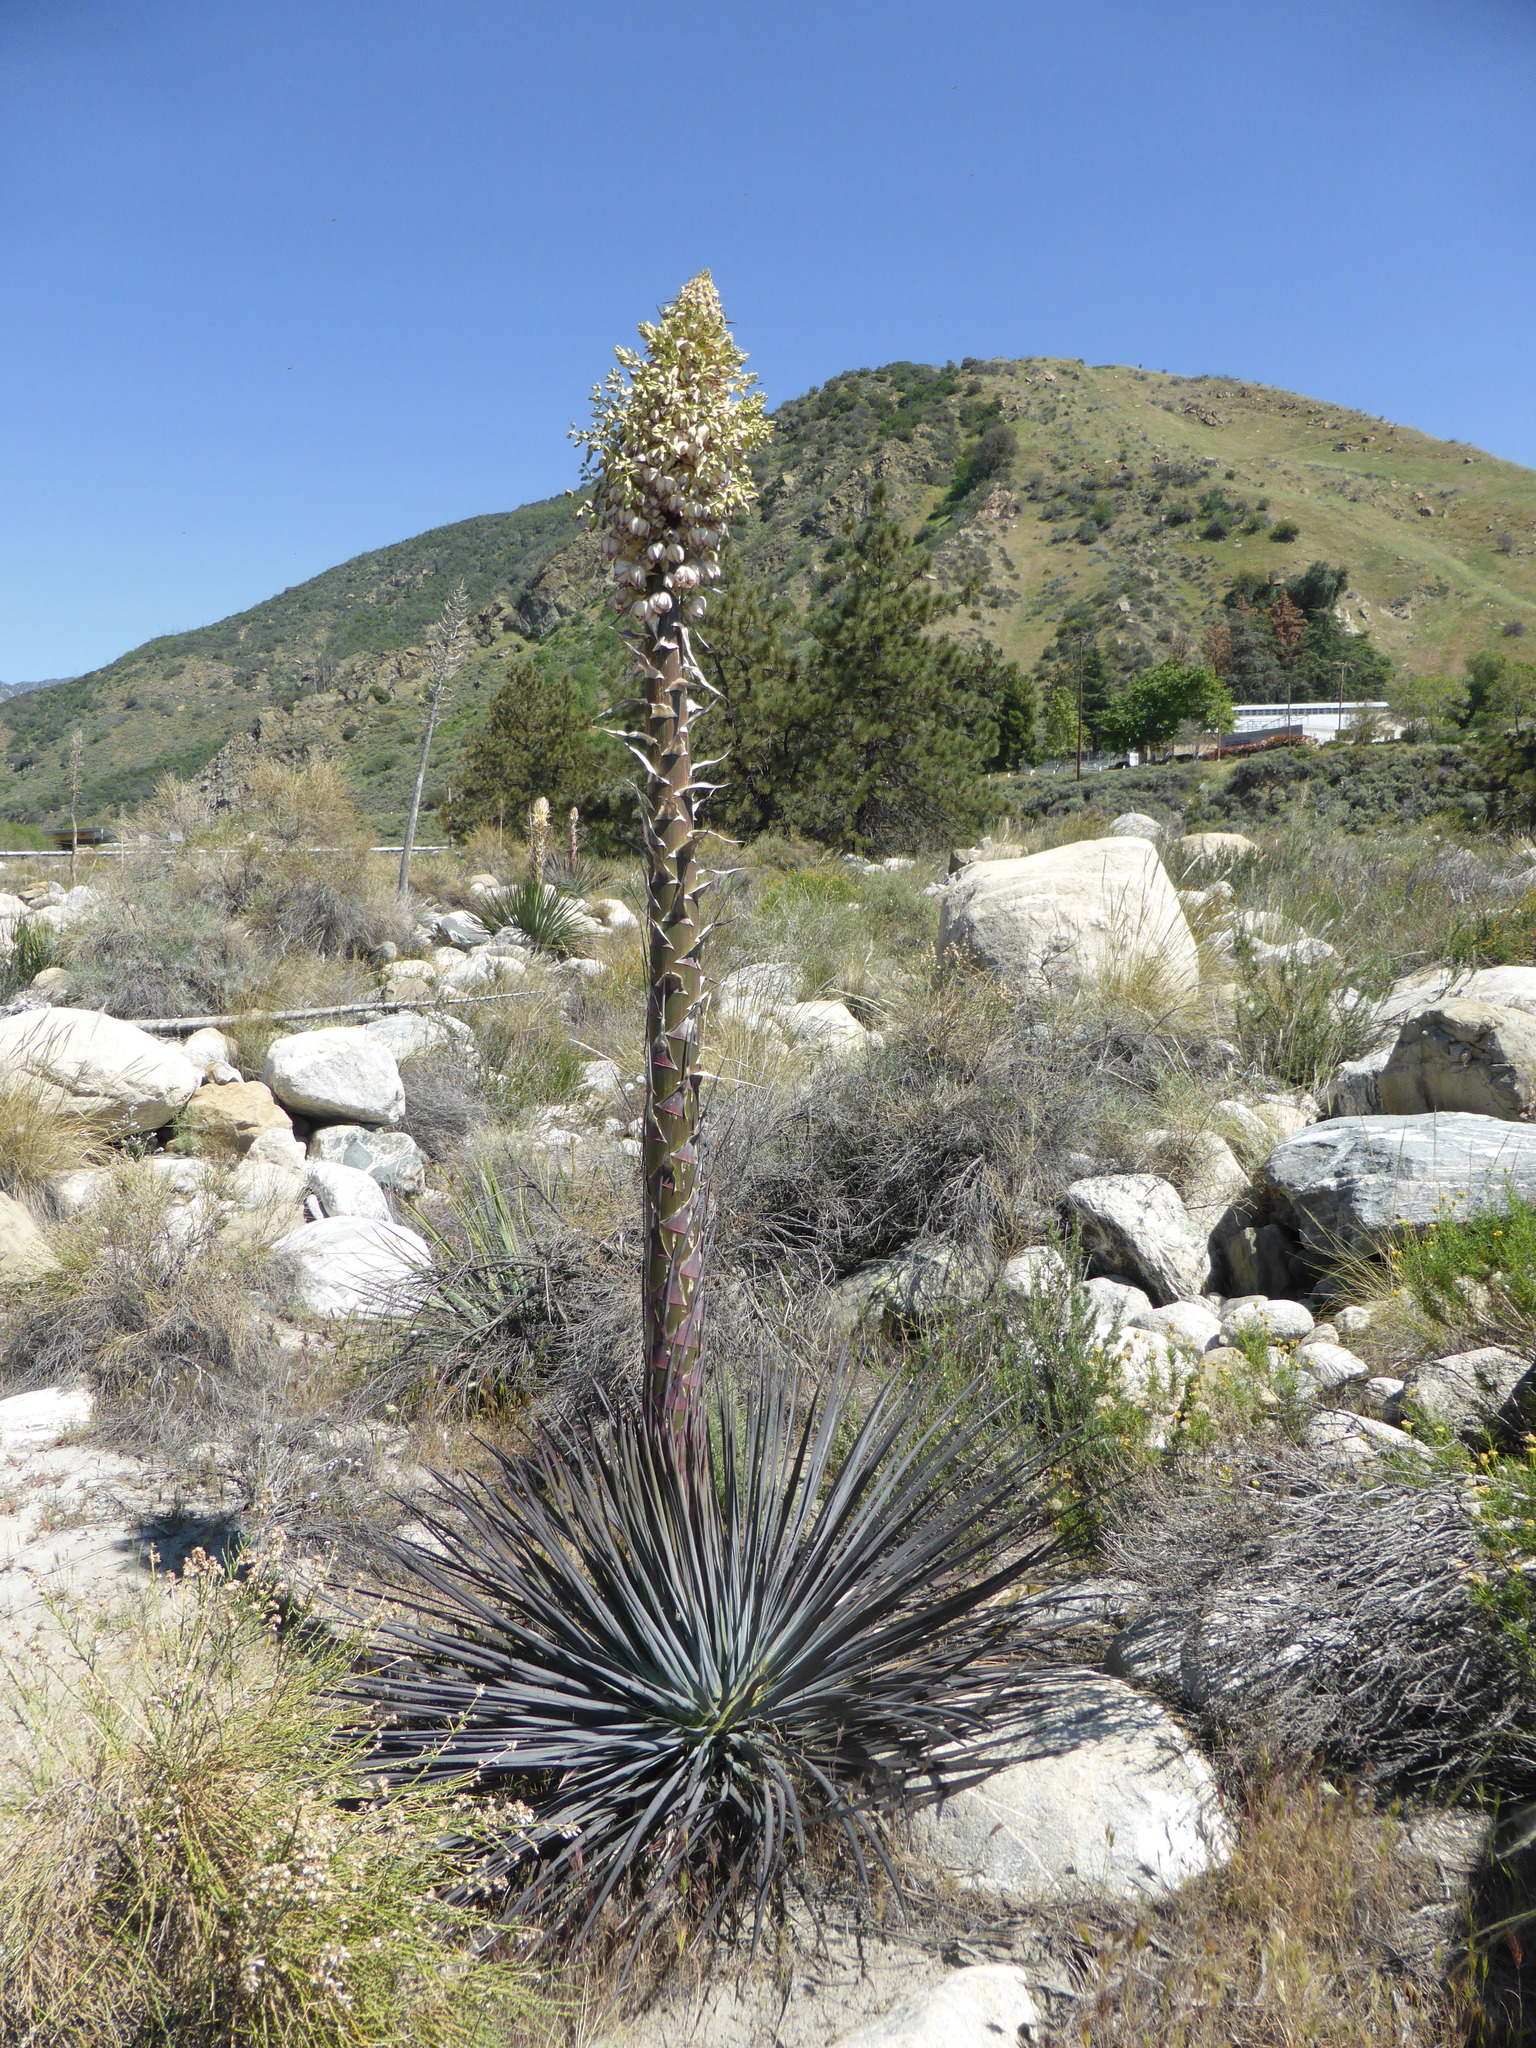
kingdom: Plantae
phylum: Tracheophyta
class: Liliopsida
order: Asparagales
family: Asparagaceae
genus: Hesperoyucca
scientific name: Hesperoyucca whipplei
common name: Our lord's-candle
